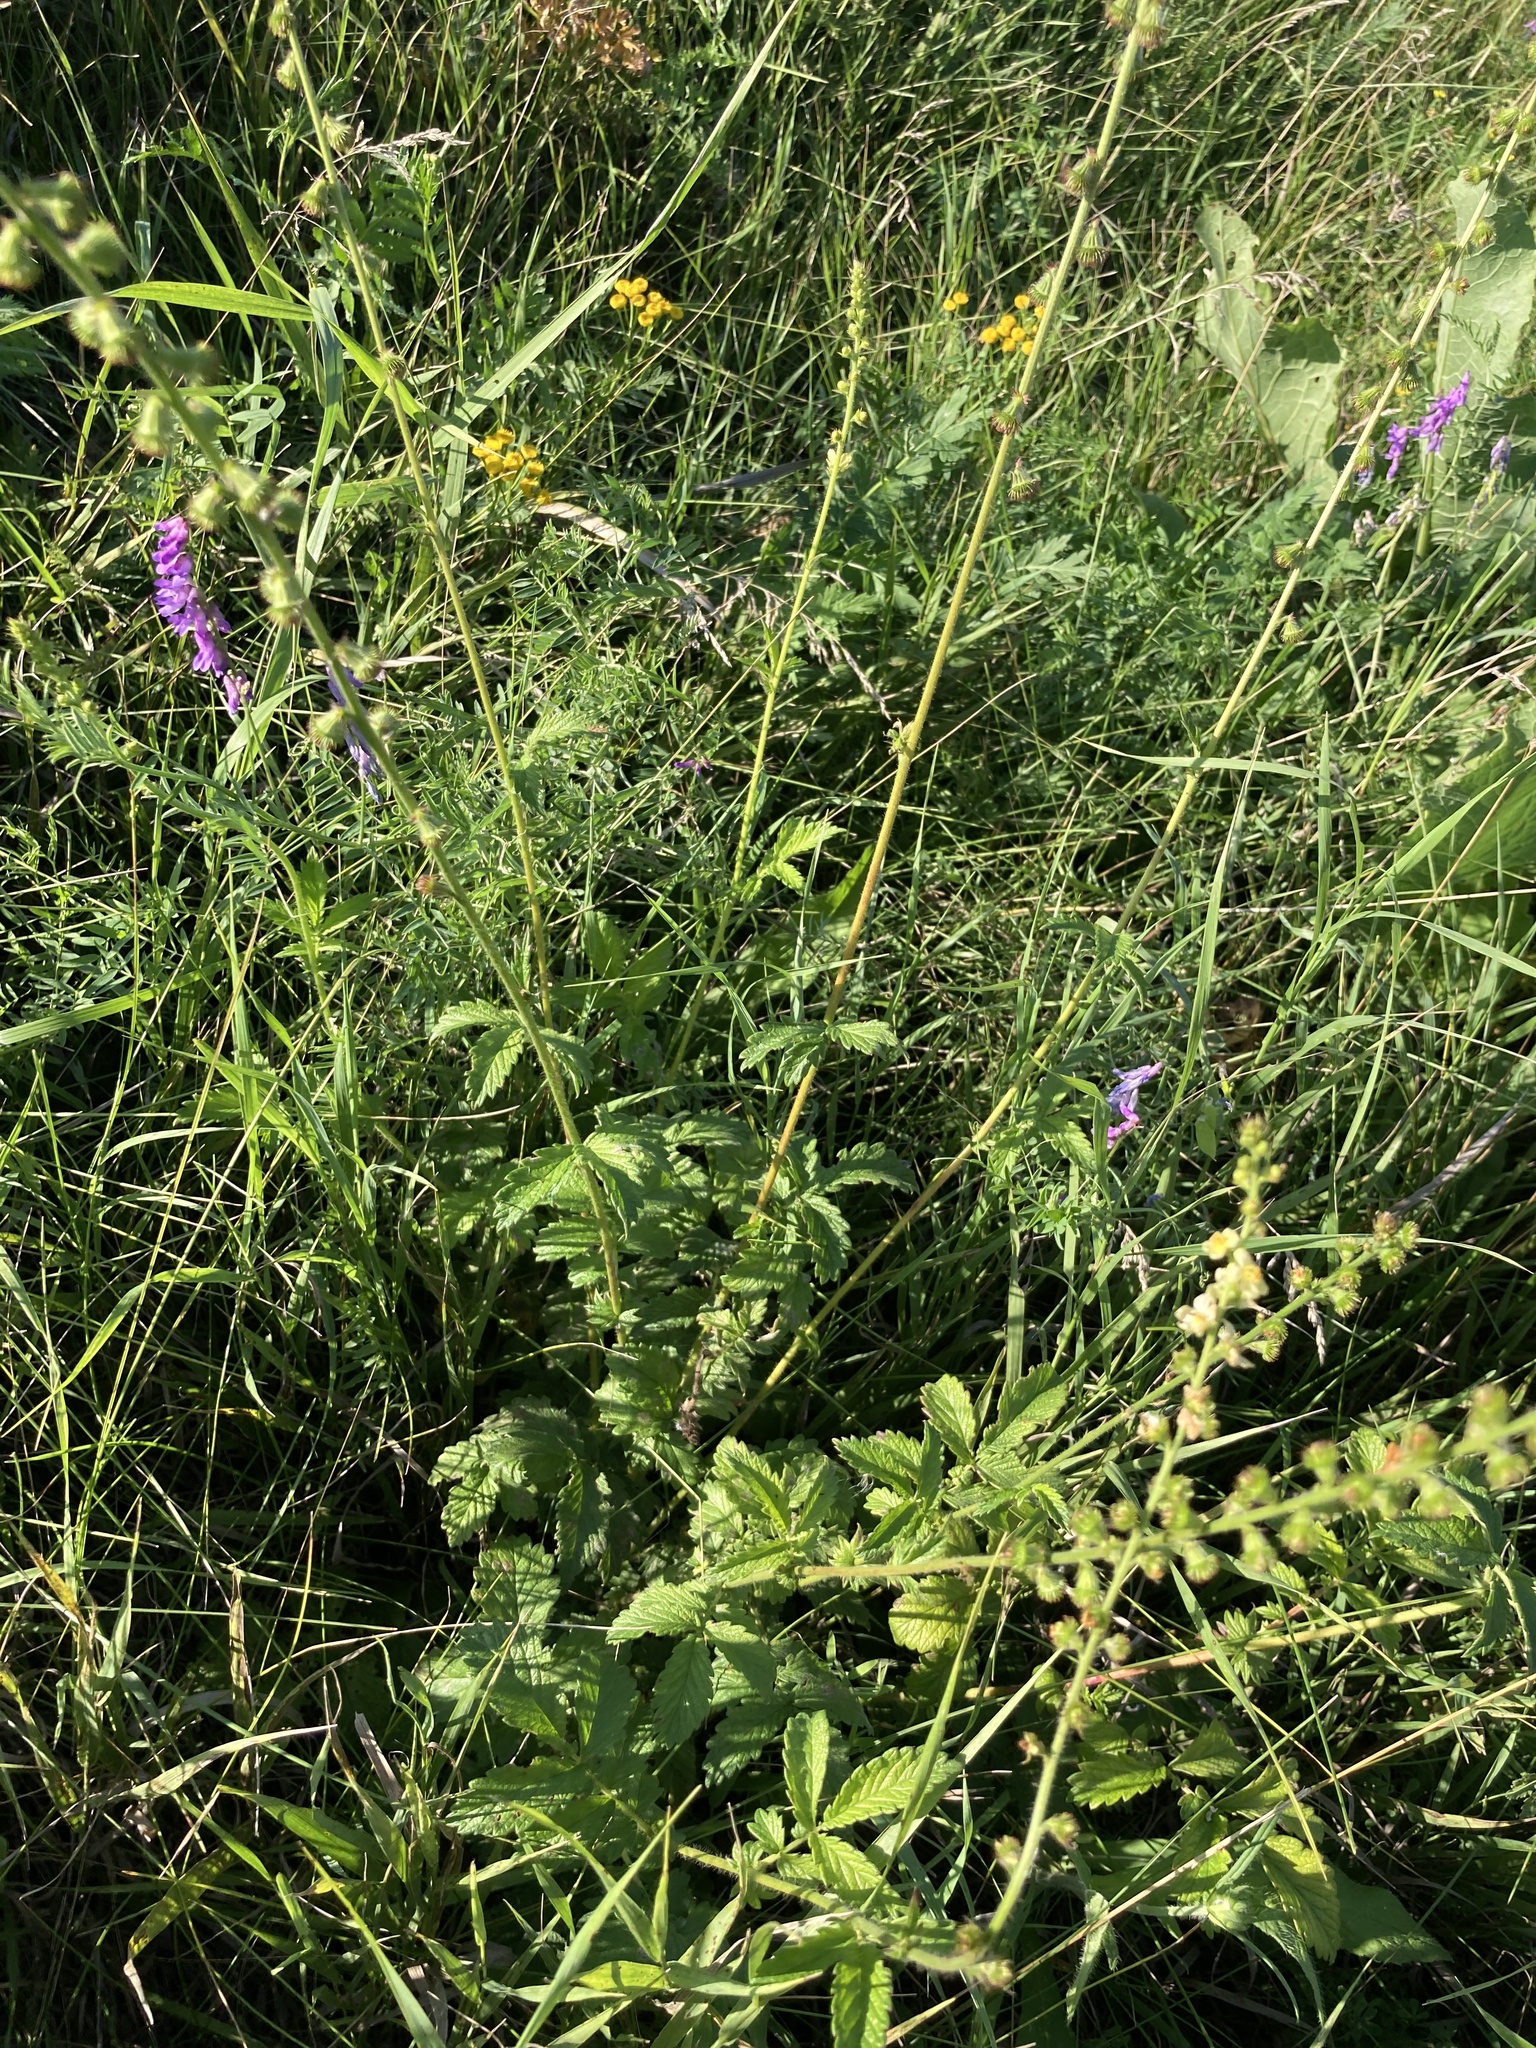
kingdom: Plantae
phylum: Tracheophyta
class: Magnoliopsida
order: Rosales
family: Rosaceae
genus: Agrimonia
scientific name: Agrimonia eupatoria
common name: Agrimony
